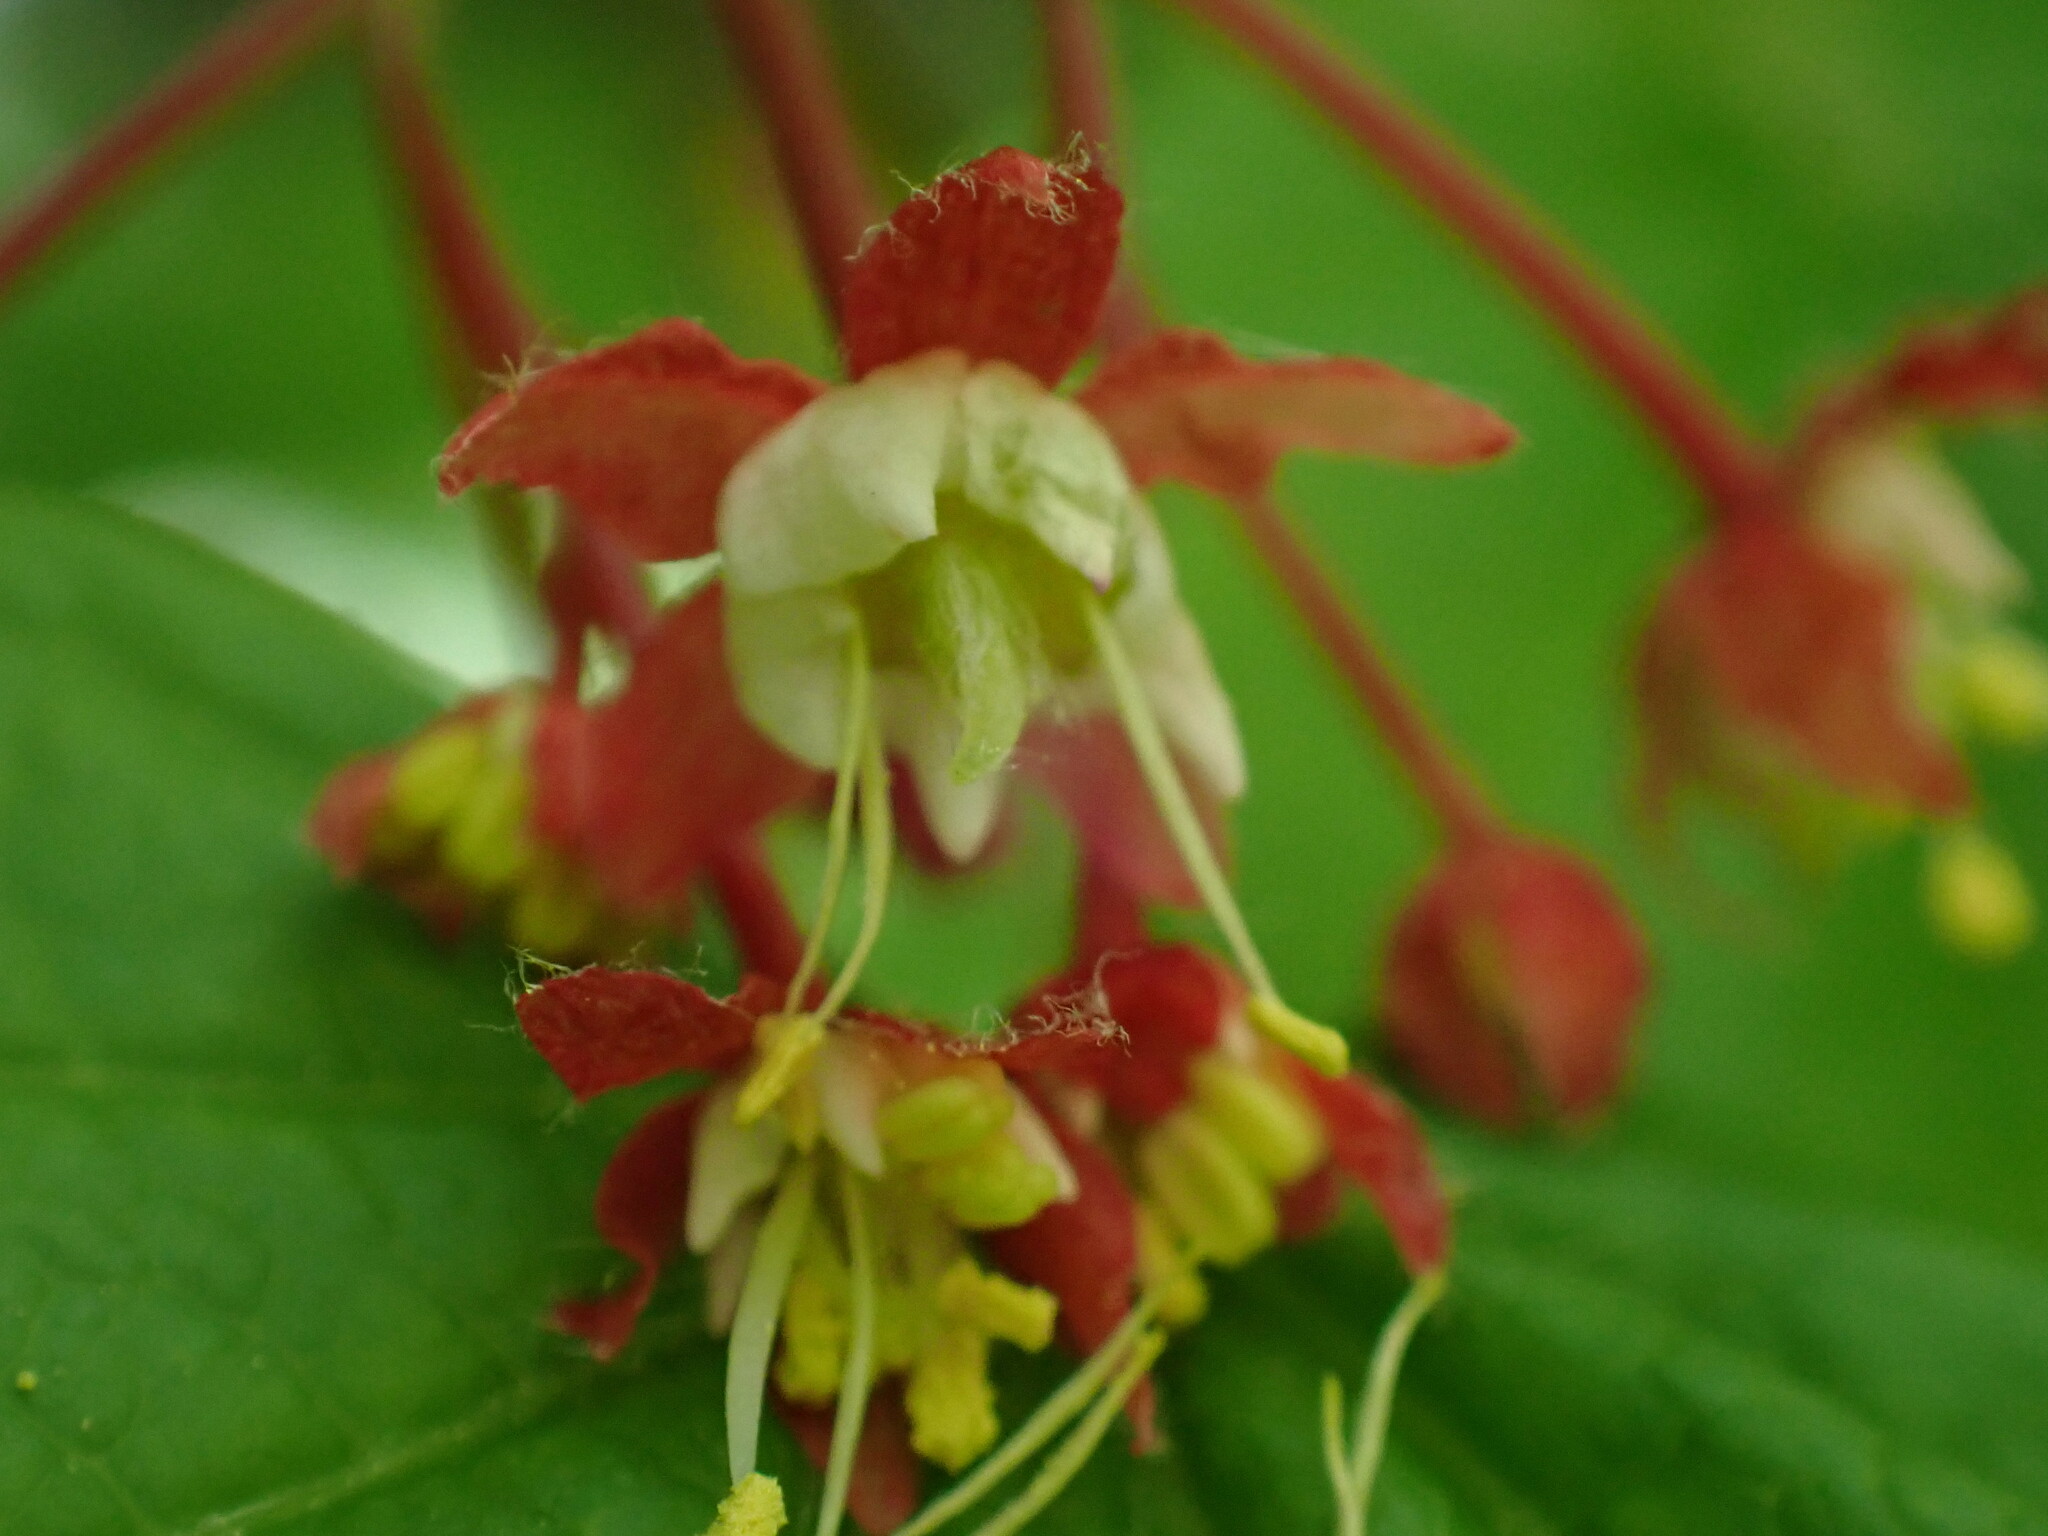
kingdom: Plantae
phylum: Tracheophyta
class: Magnoliopsida
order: Sapindales
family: Sapindaceae
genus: Acer
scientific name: Acer circinatum
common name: Vine maple
